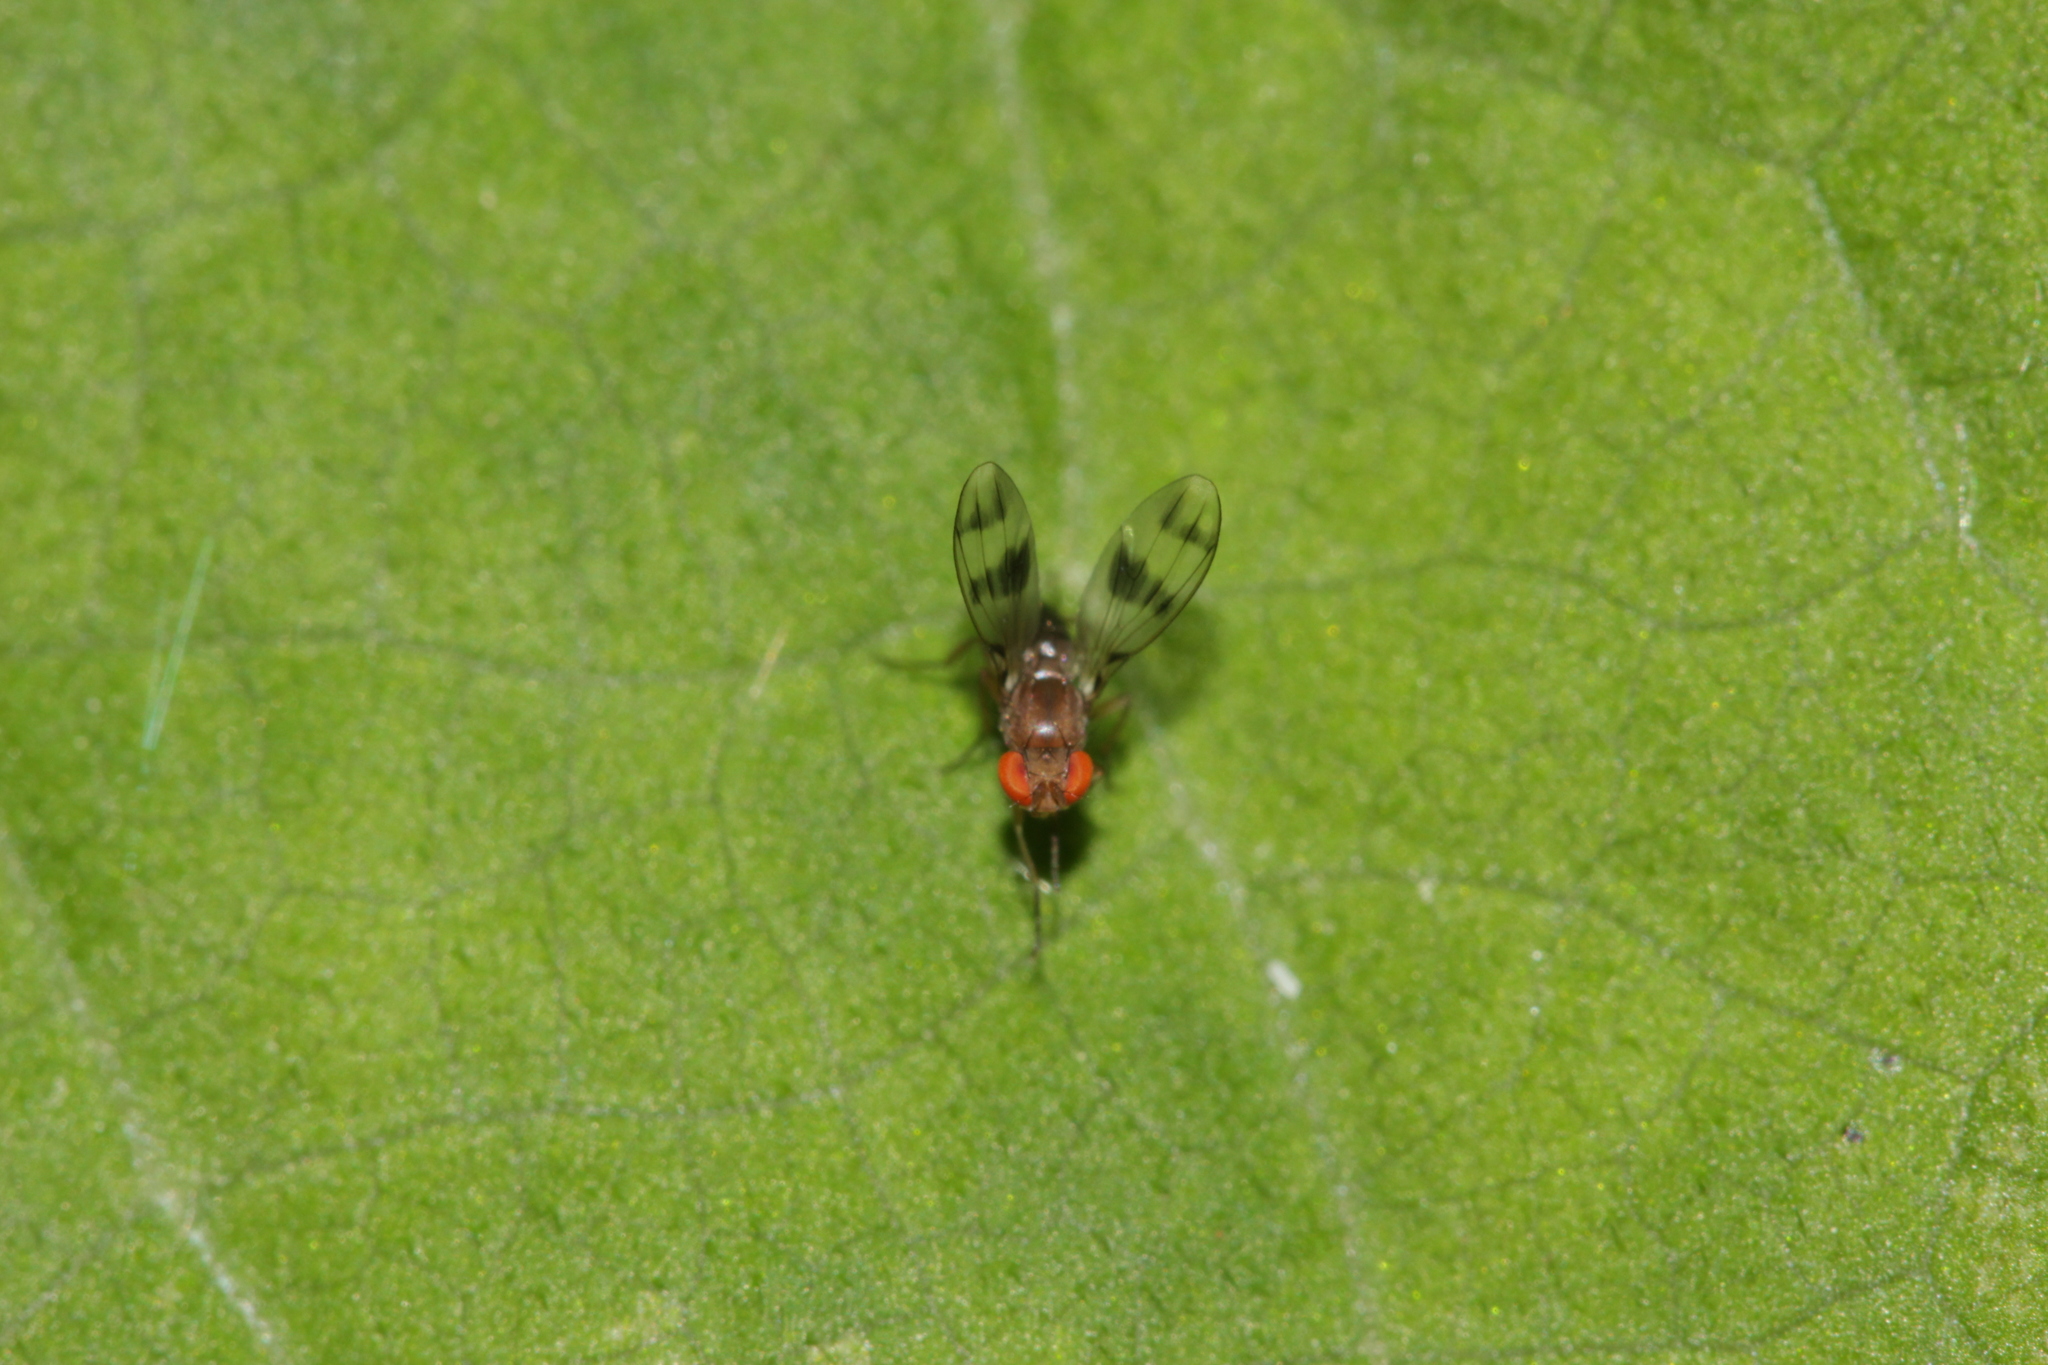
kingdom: Animalia
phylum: Arthropoda
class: Insecta
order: Diptera
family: Drosophilidae
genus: Chymomyza
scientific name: Chymomyza amoena
